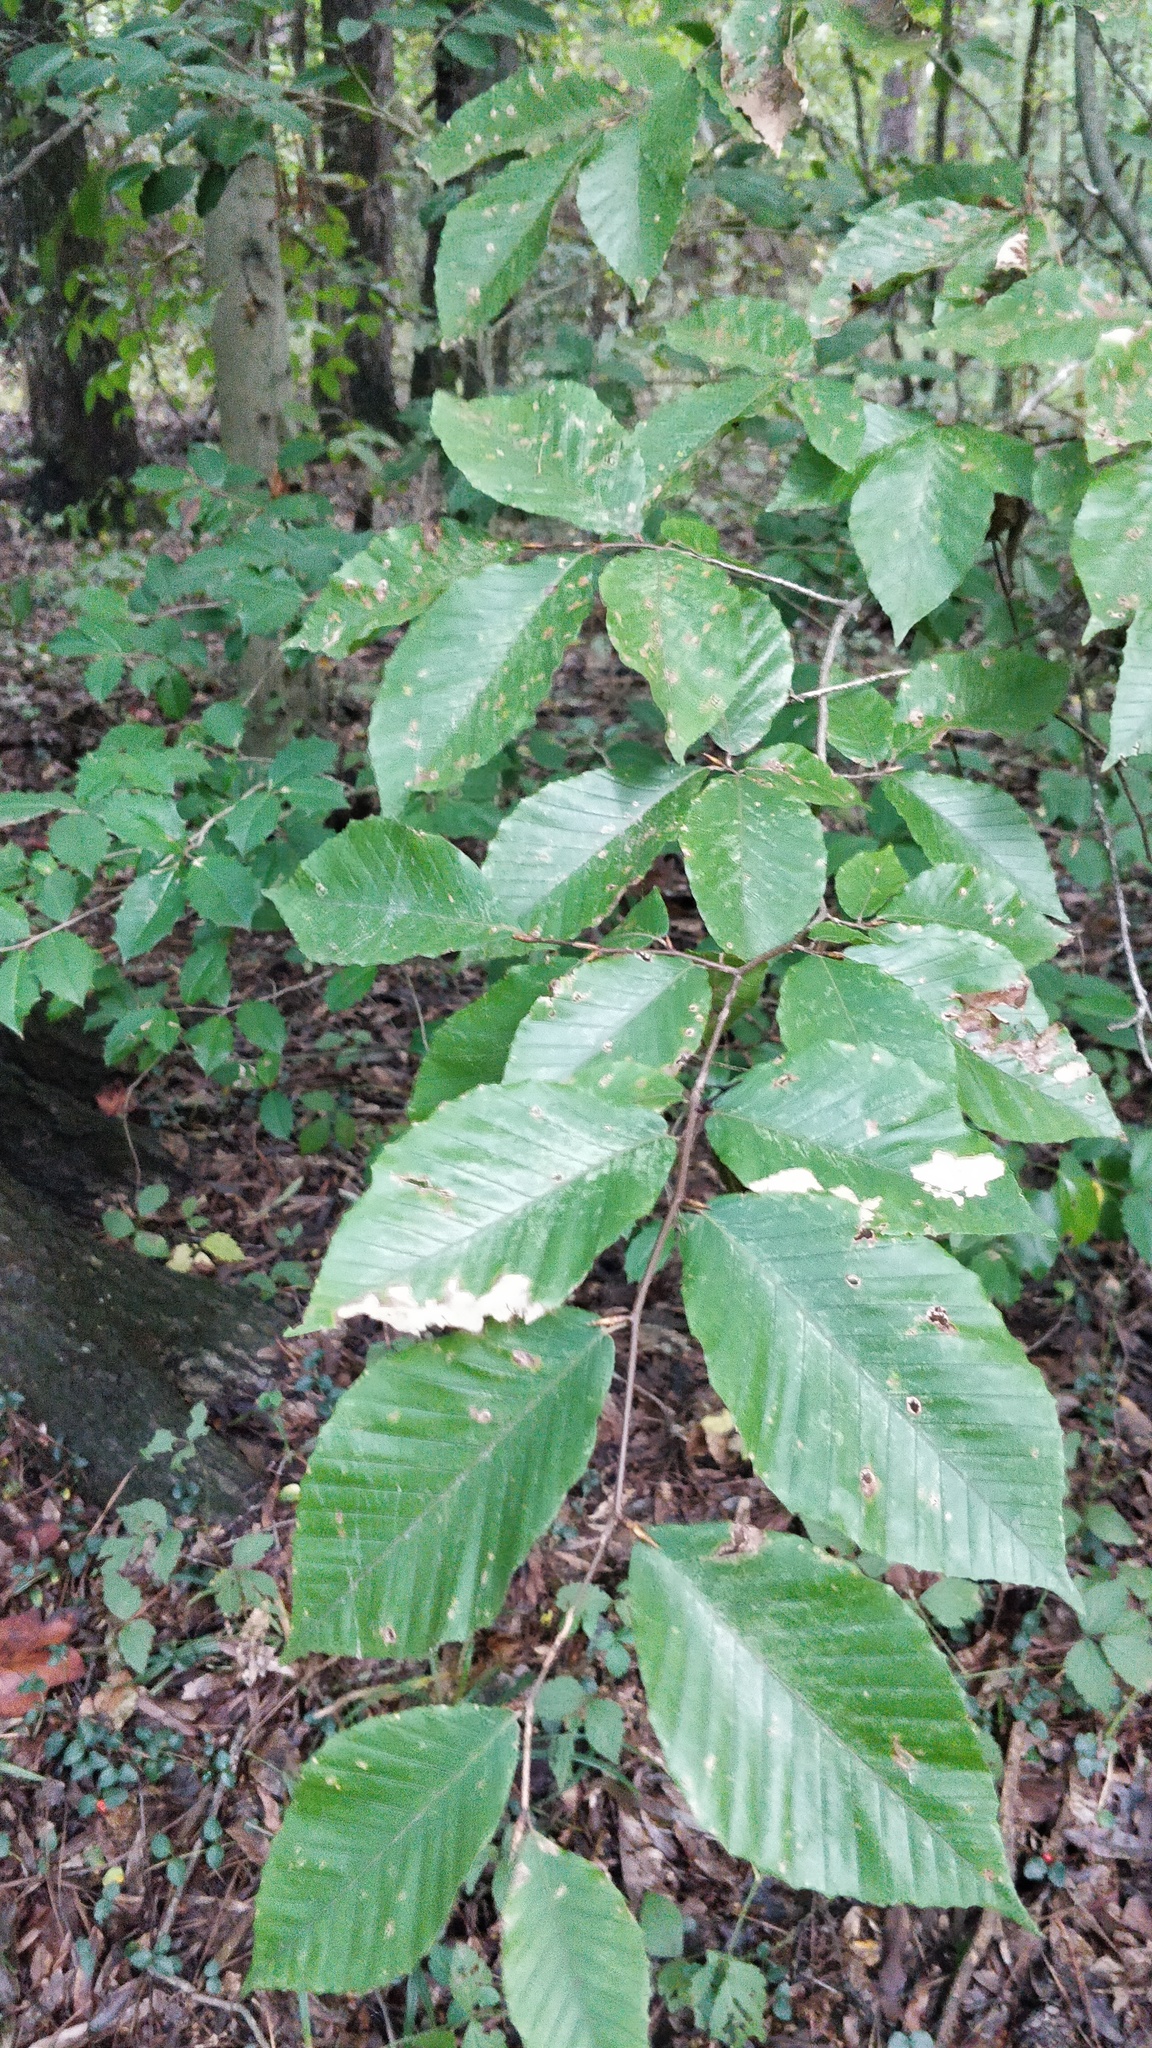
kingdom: Plantae
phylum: Tracheophyta
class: Magnoliopsida
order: Fagales
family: Fagaceae
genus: Fagus
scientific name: Fagus grandifolia
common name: American beech
